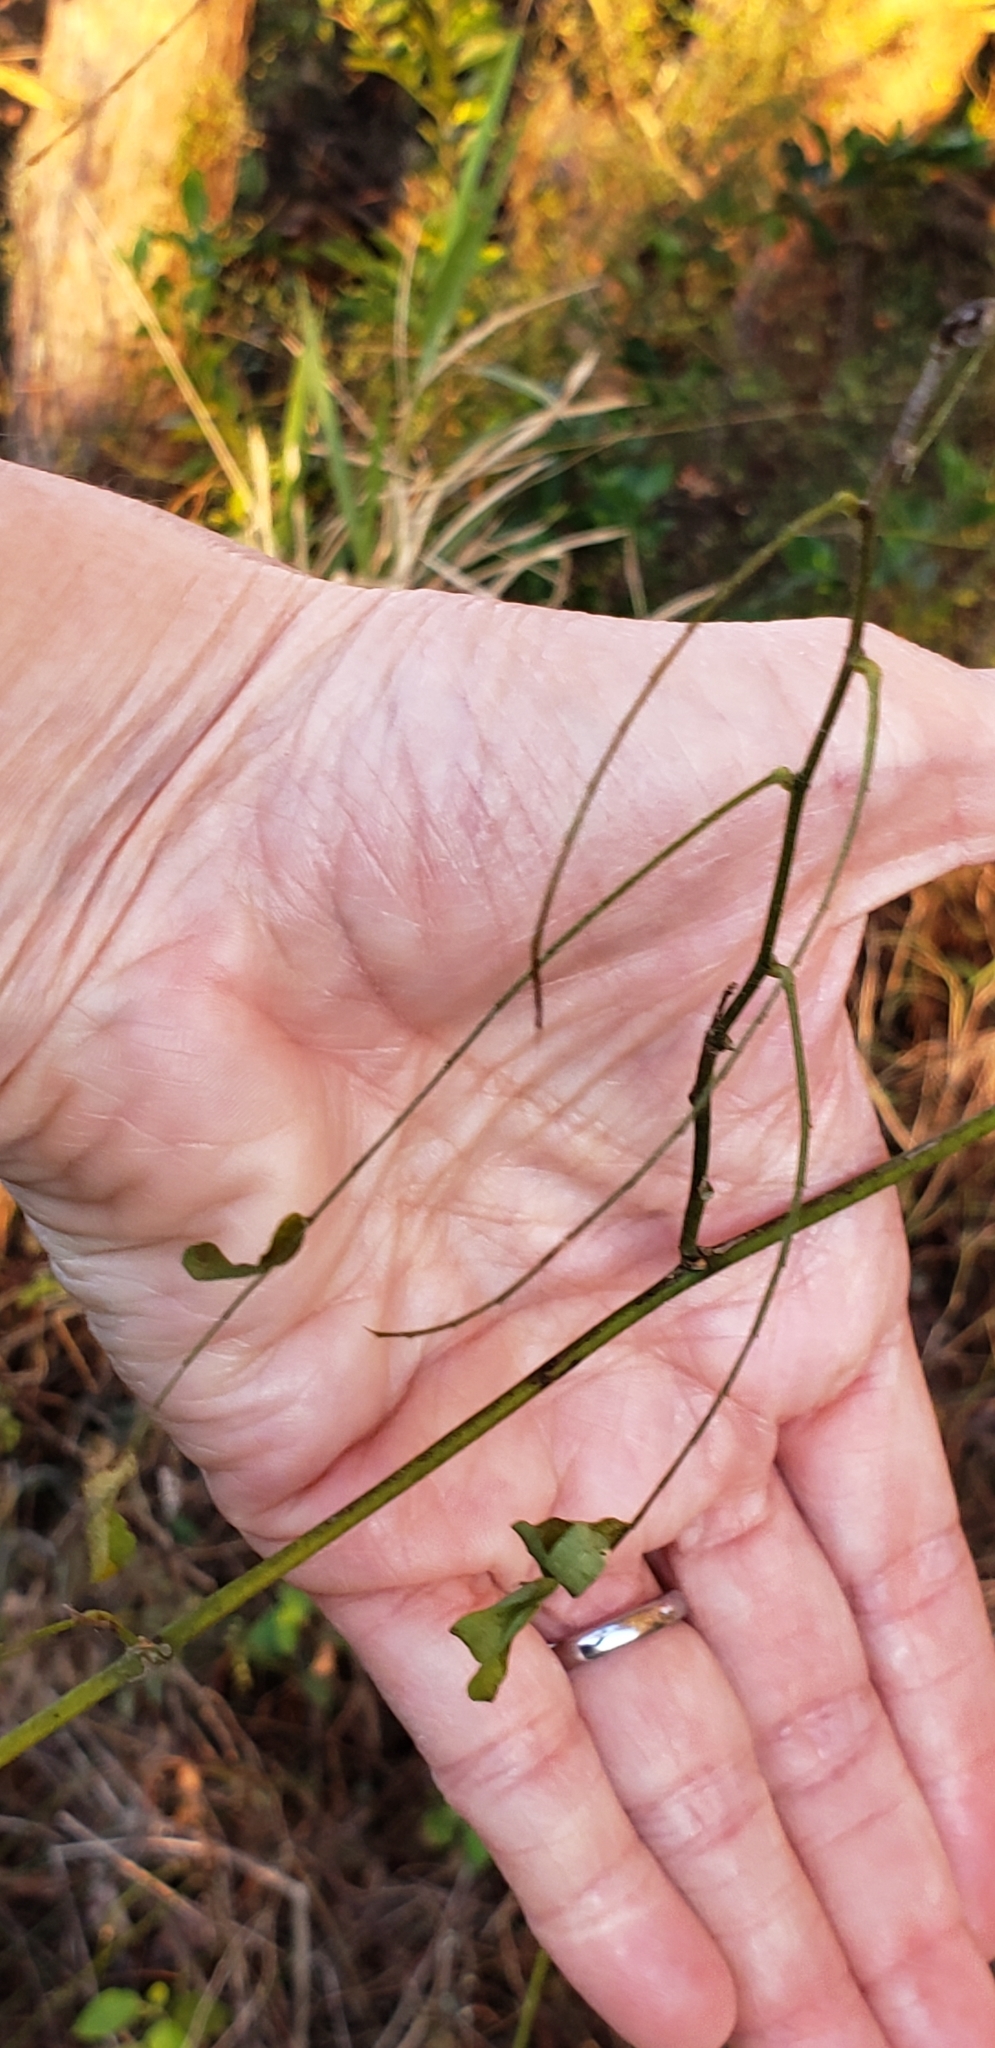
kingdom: Plantae
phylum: Tracheophyta
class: Magnoliopsida
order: Fabales
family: Fabaceae
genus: Abrus
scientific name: Abrus precatorius
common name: Rosarypea
